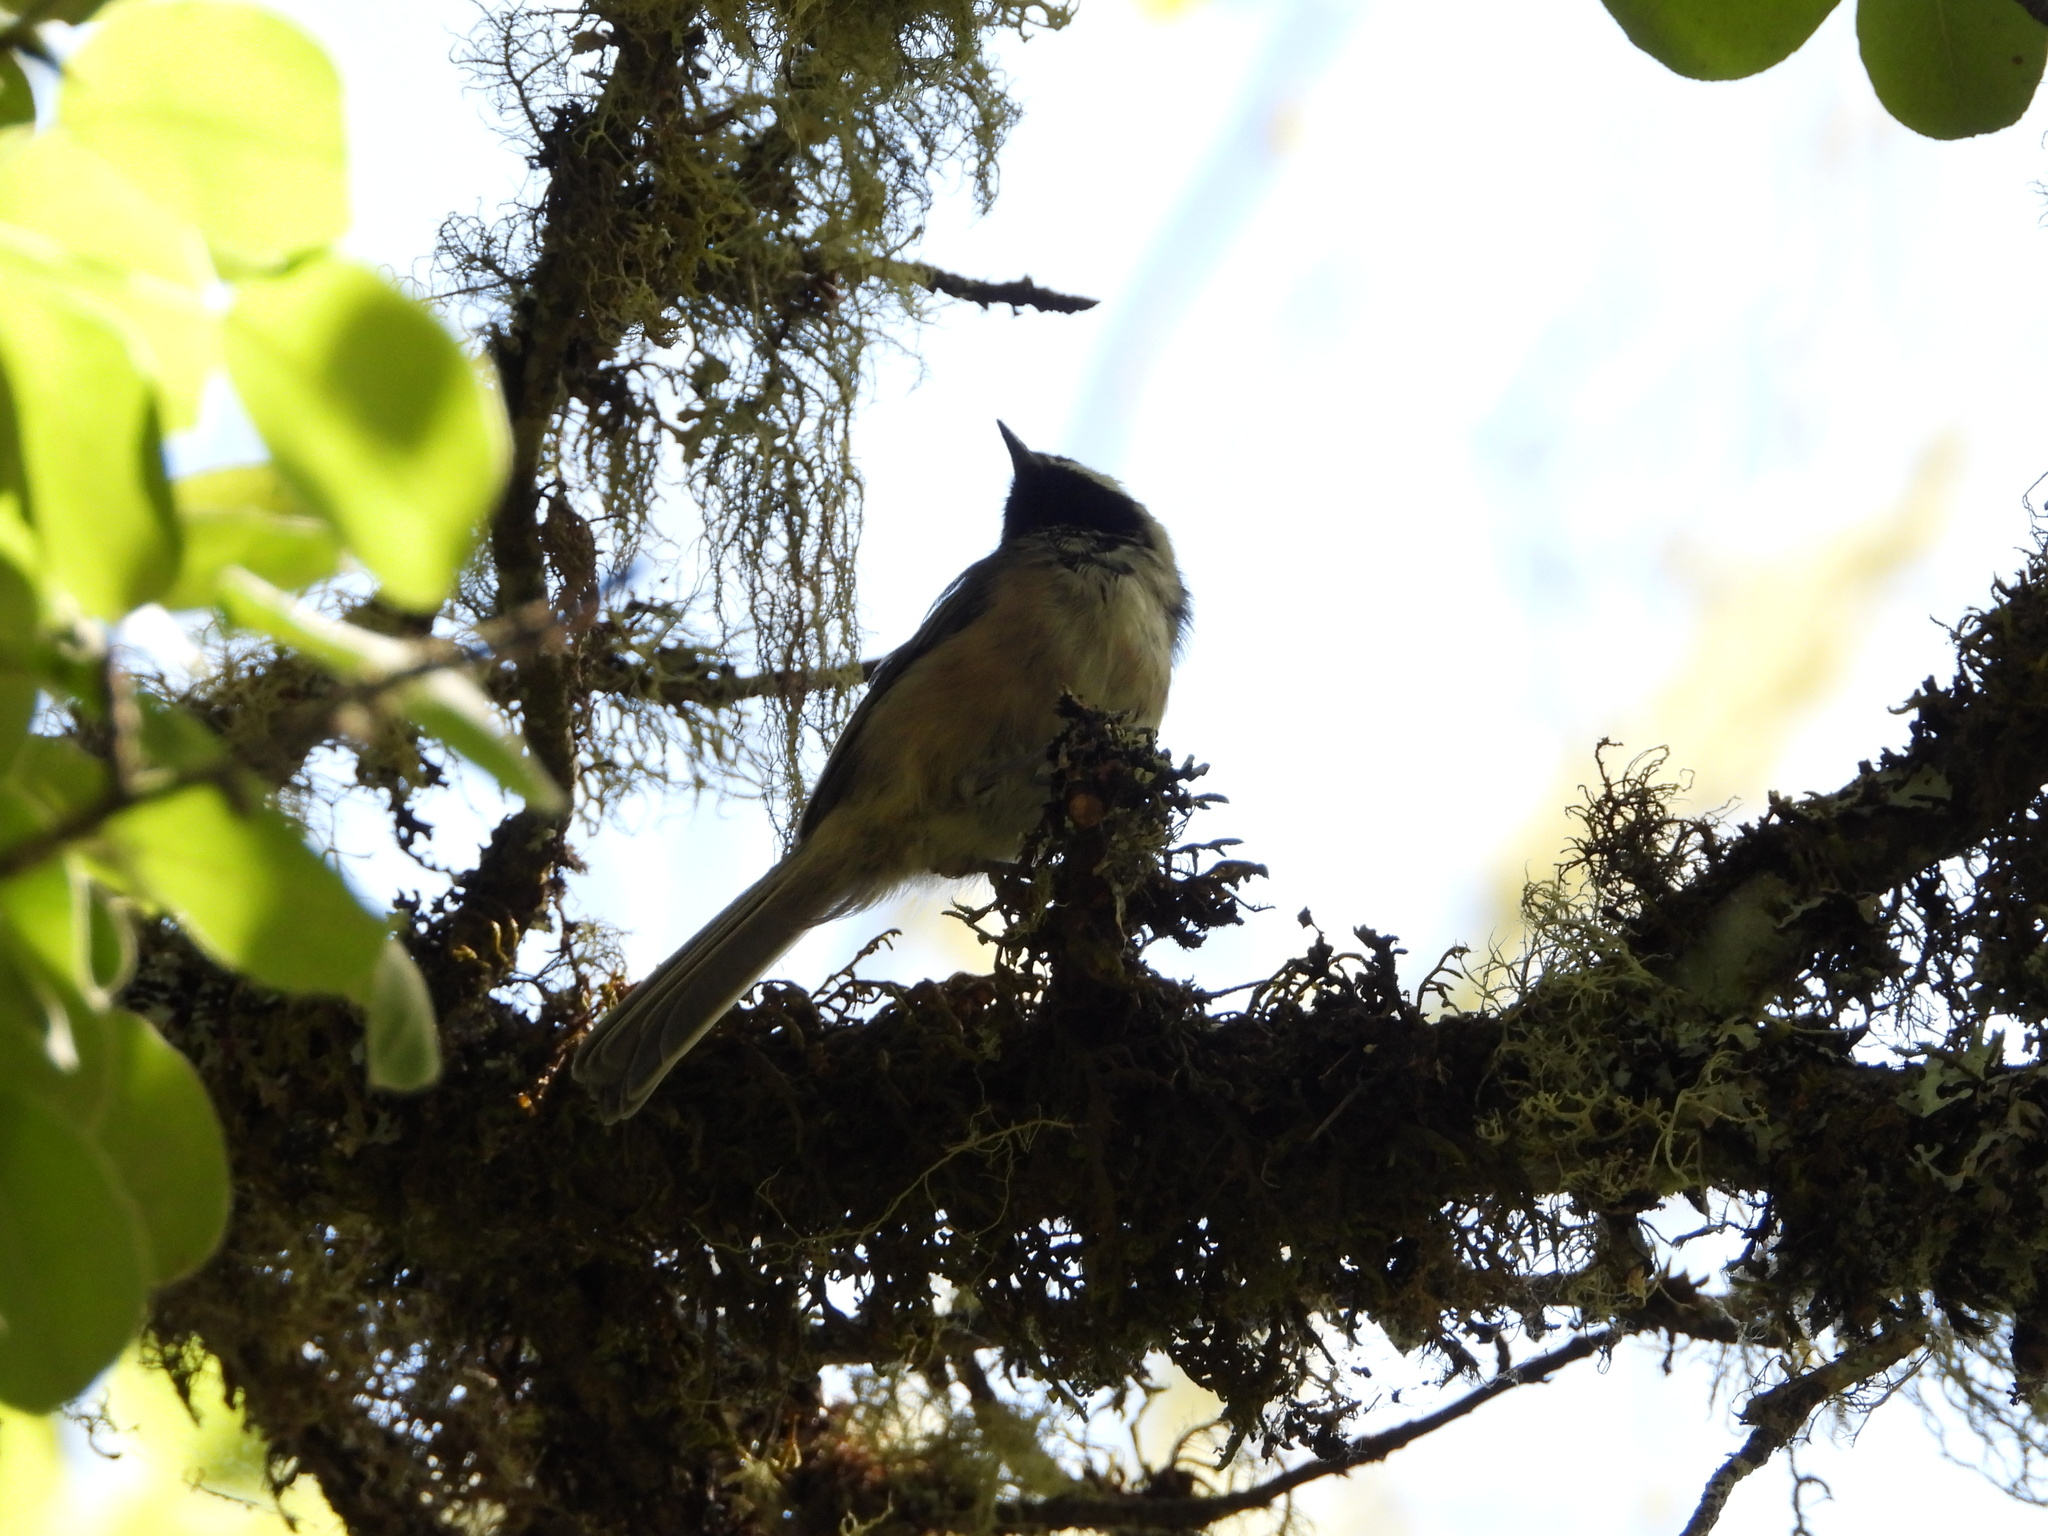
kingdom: Animalia
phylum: Chordata
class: Aves
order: Passeriformes
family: Paridae
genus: Poecile
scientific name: Poecile atricapillus
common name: Black-capped chickadee
